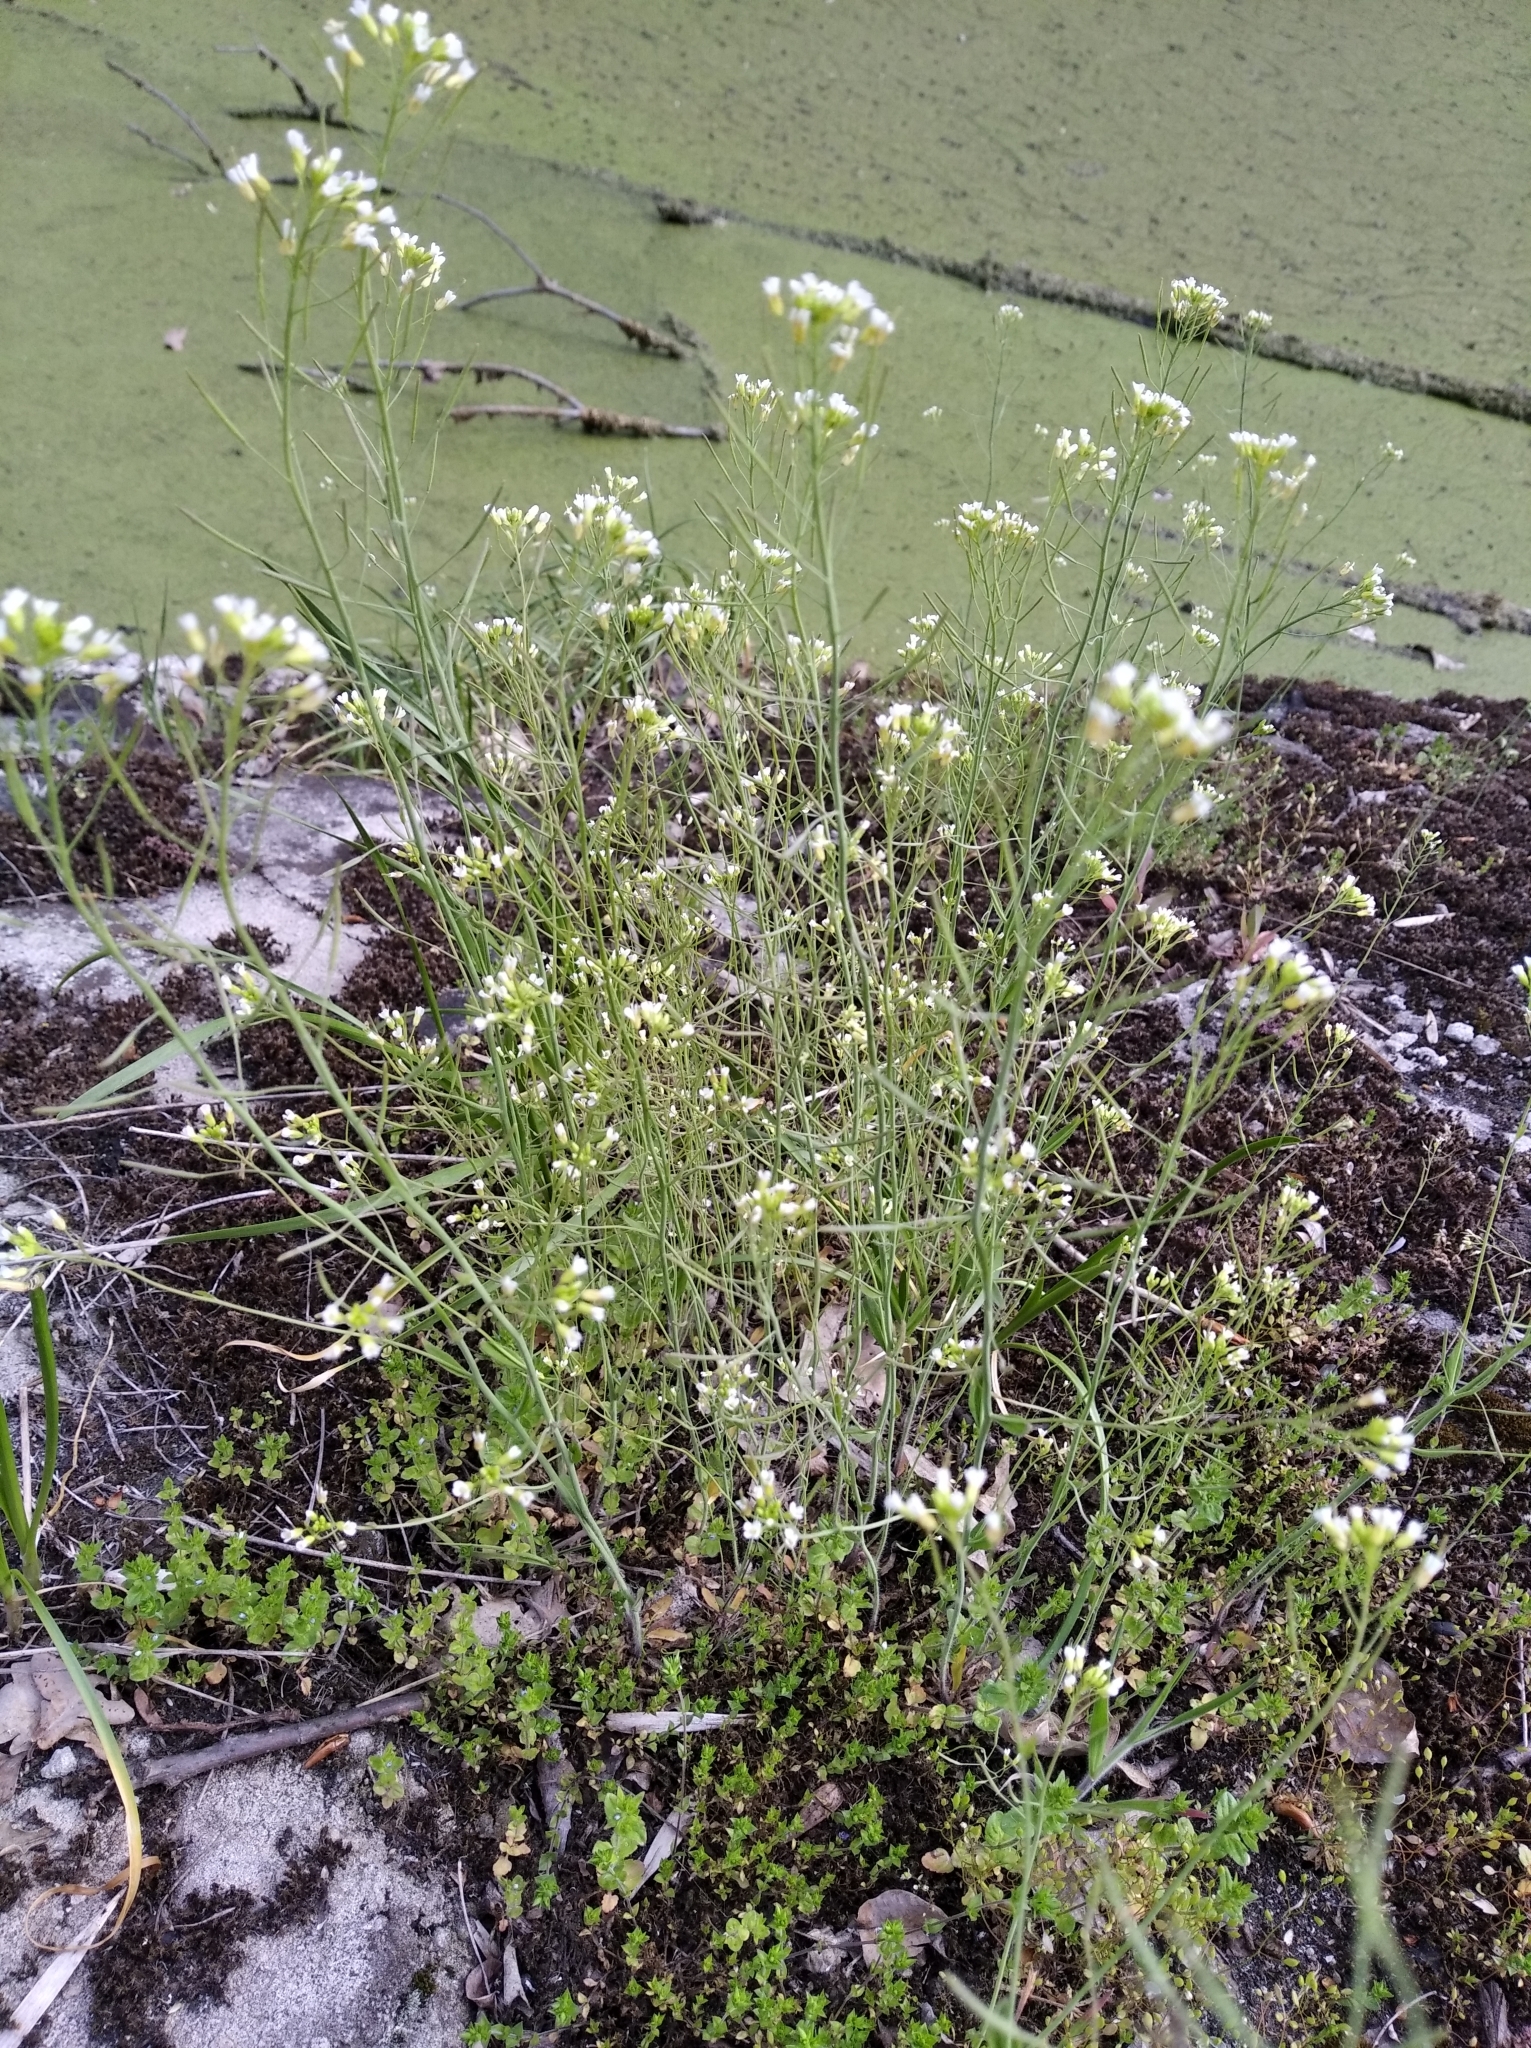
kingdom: Plantae
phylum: Tracheophyta
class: Magnoliopsida
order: Brassicales
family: Brassicaceae
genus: Arabidopsis
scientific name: Arabidopsis thaliana
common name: Thale cress
